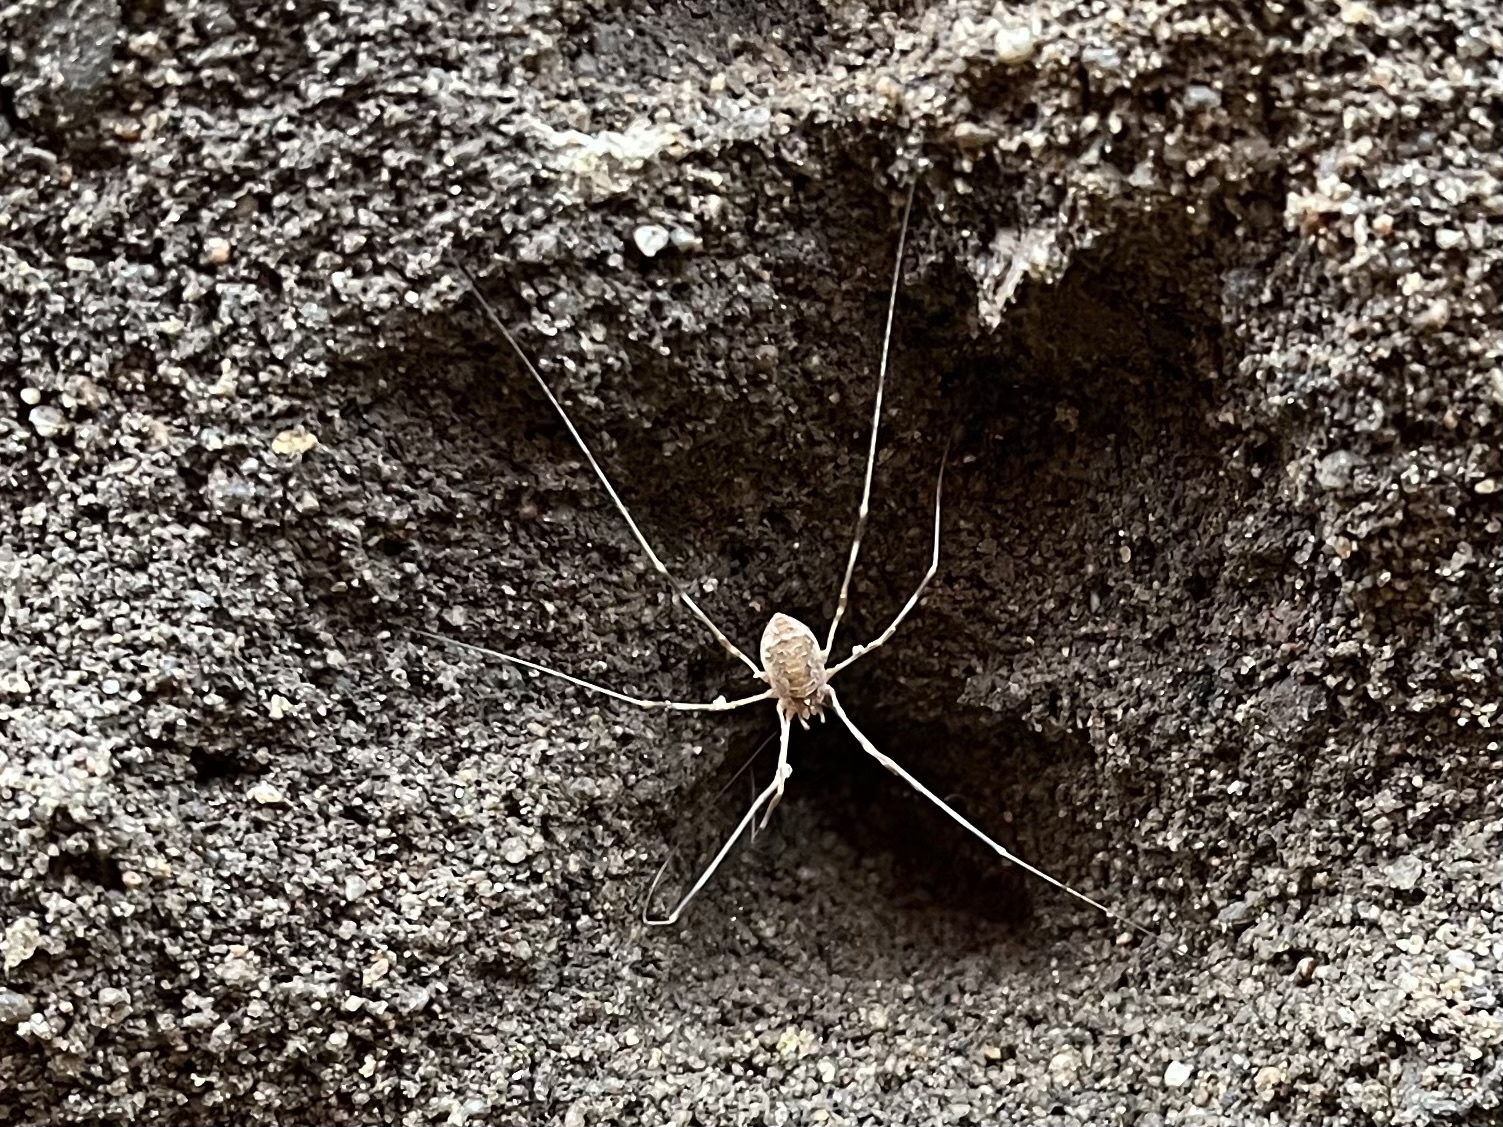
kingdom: Animalia
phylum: Arthropoda
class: Arachnida
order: Opiliones
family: Phalangiidae
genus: Opilio
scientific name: Opilio canestrinii
